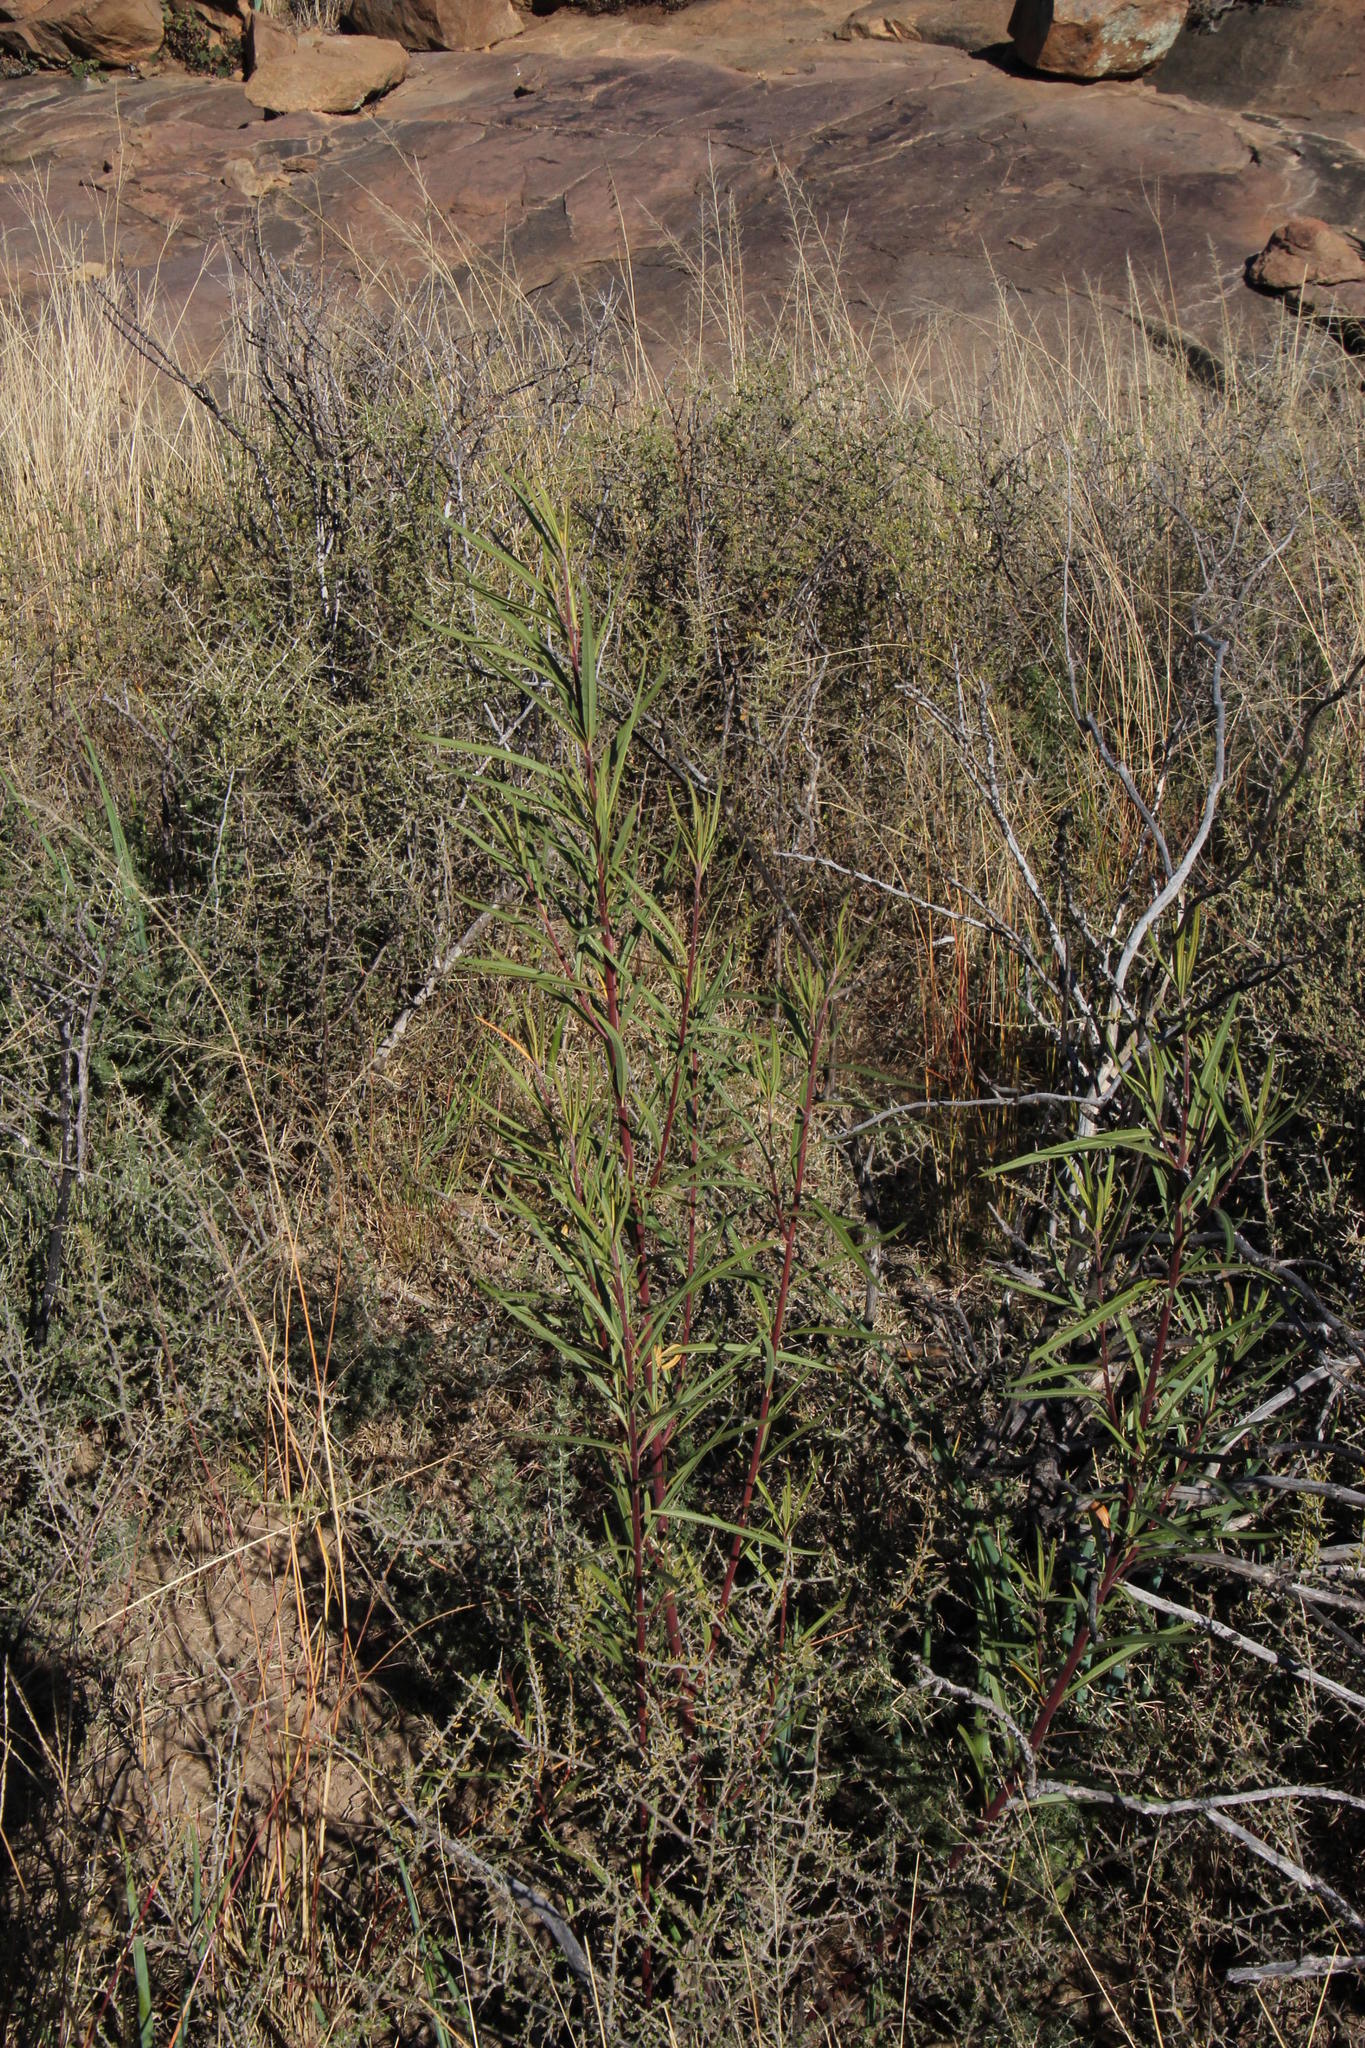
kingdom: Plantae
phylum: Tracheophyta
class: Magnoliopsida
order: Gentianales
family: Apocynaceae
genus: Gomphocarpus
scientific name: Gomphocarpus fruticosus
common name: Milkweed
